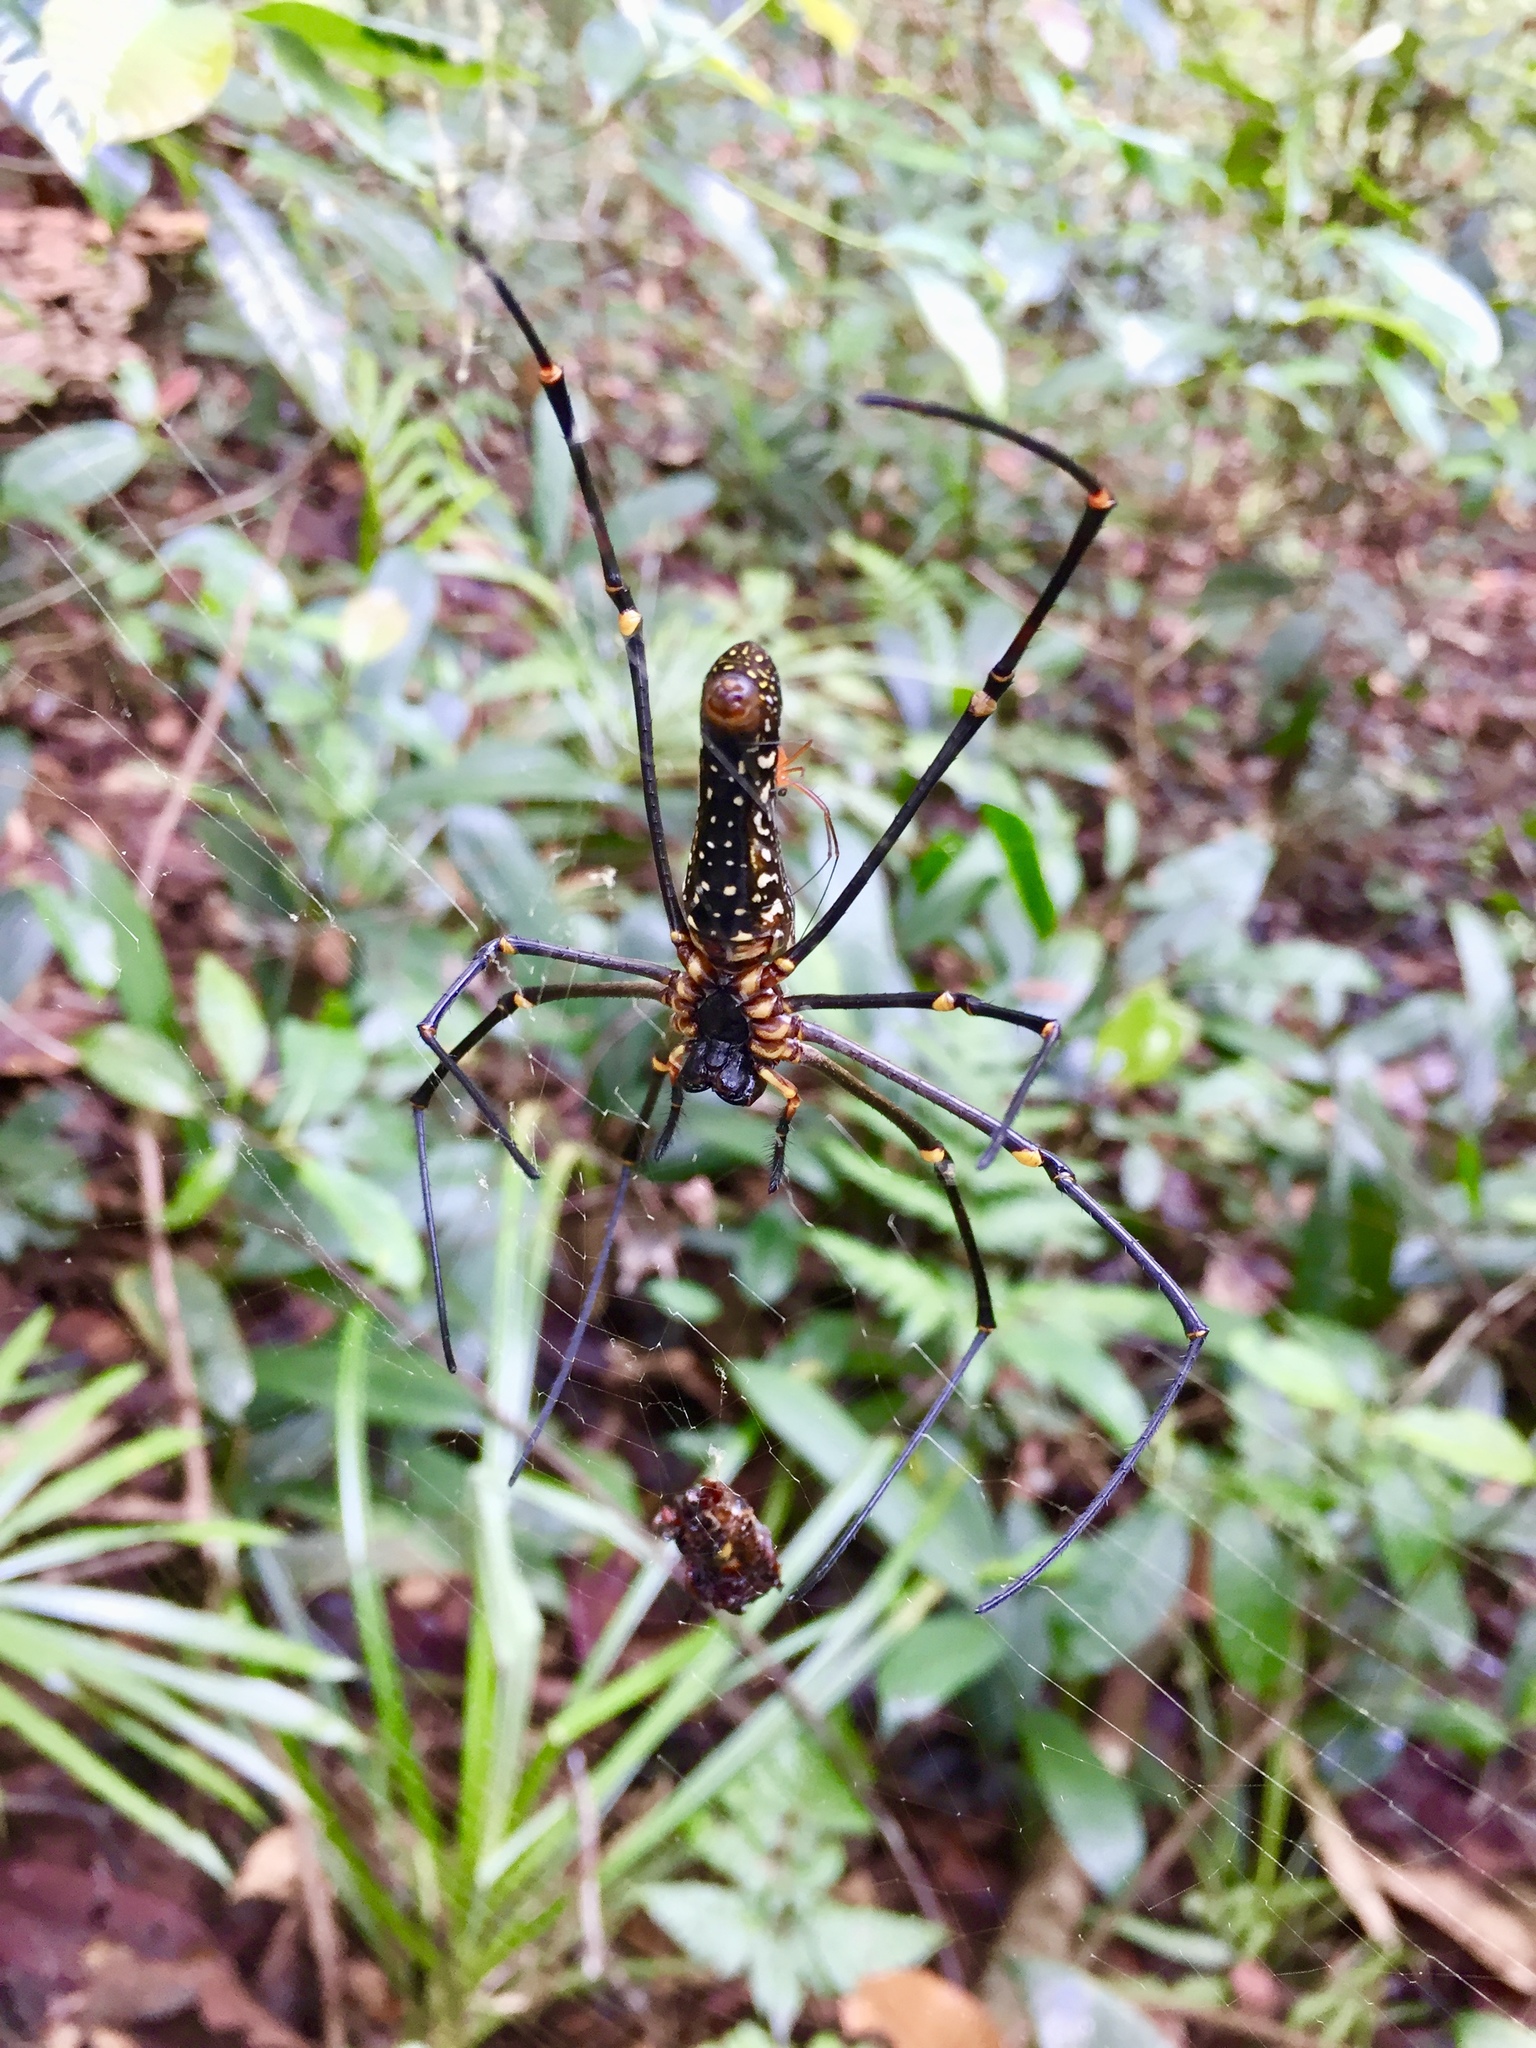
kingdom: Animalia
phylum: Arthropoda
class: Arachnida
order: Araneae
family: Araneidae
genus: Nephila
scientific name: Nephila pilipes
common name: Giant golden orb weaver
